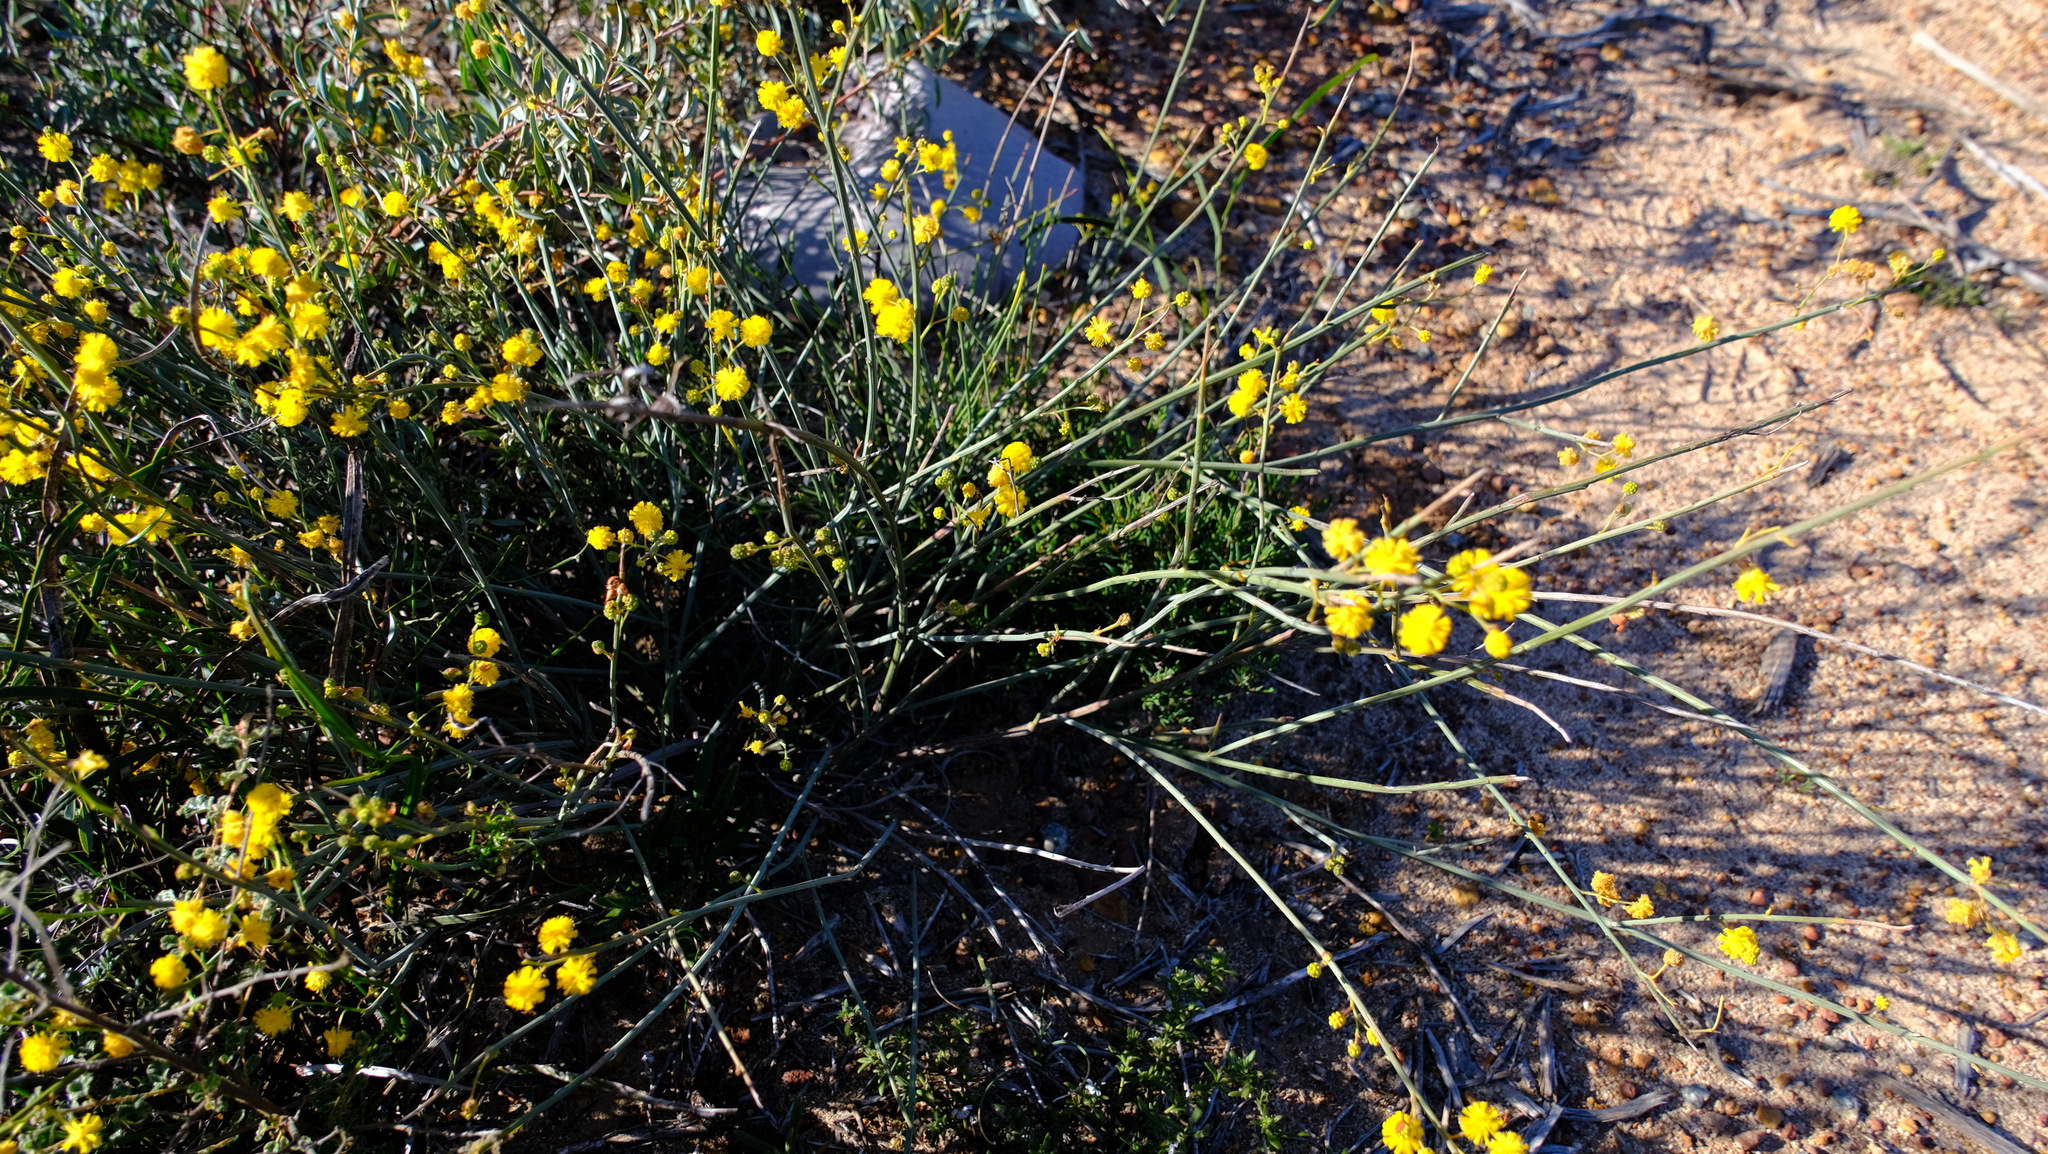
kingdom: Plantae
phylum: Tracheophyta
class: Magnoliopsida
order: Fabales
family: Fabaceae
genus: Acacia
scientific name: Acacia restiacea
